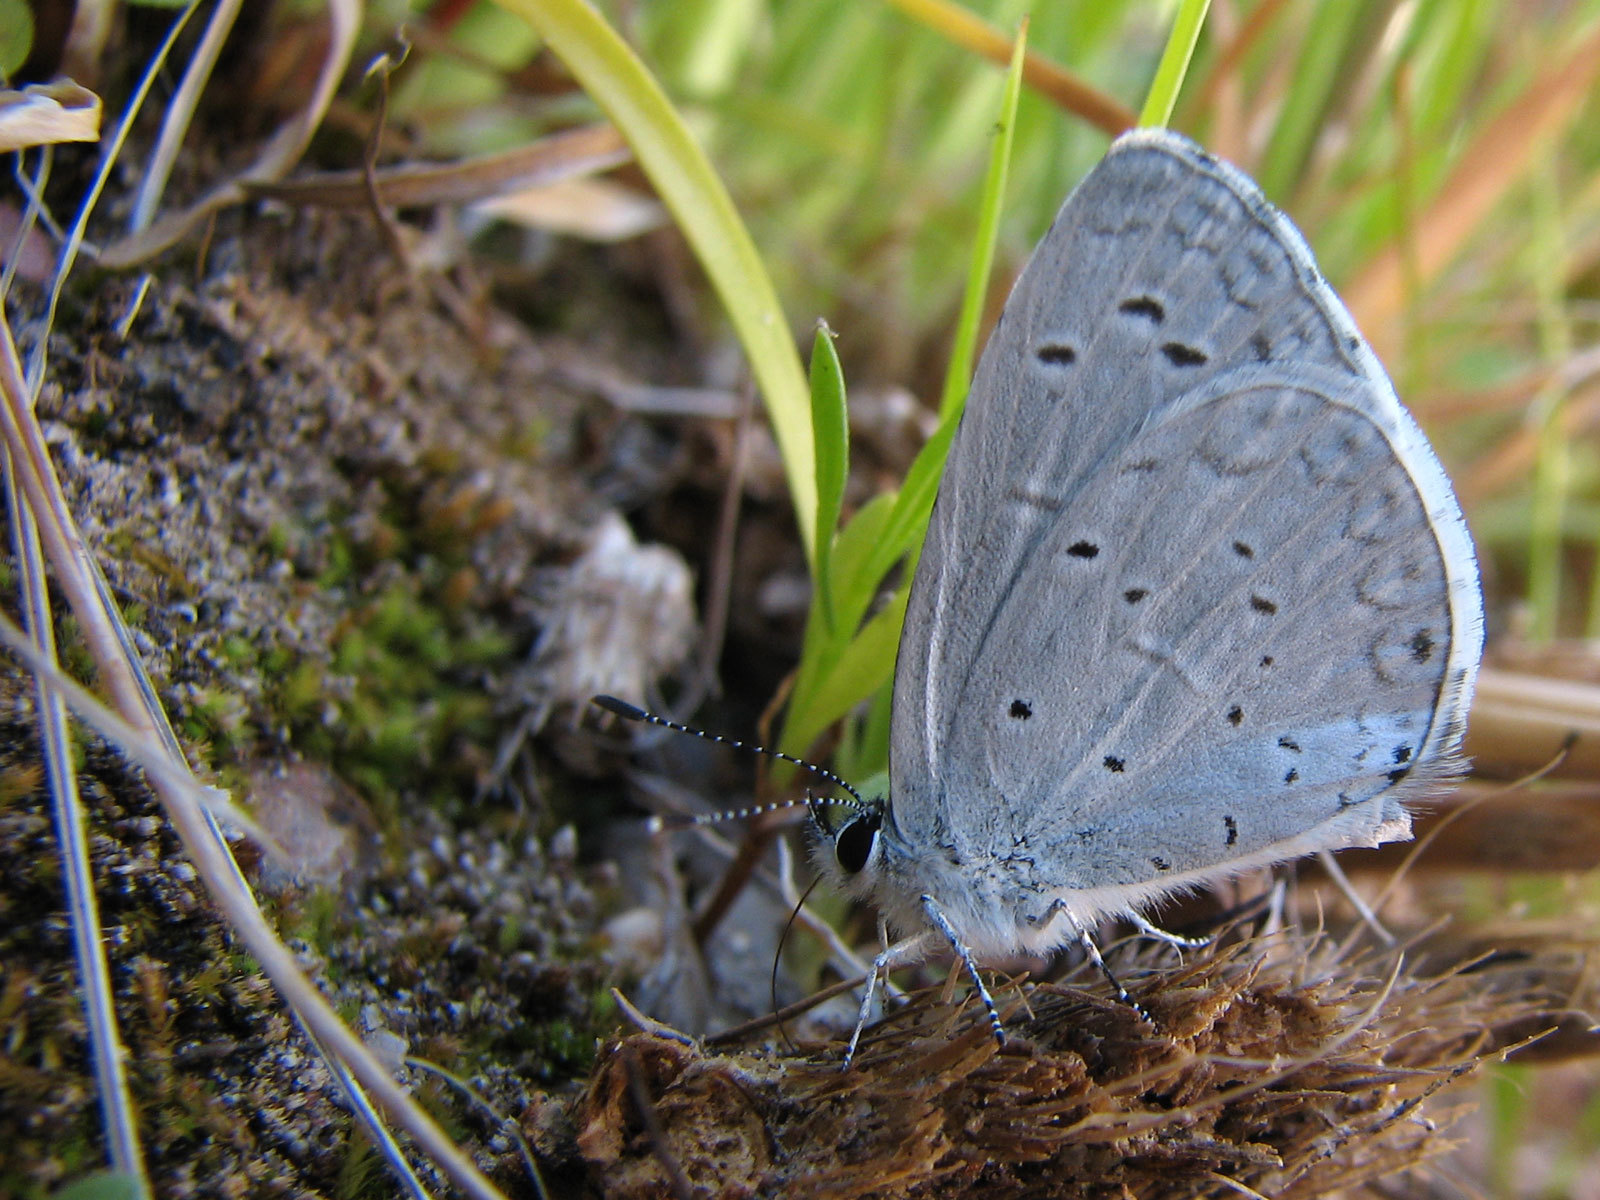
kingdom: Animalia
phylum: Arthropoda
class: Insecta
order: Lepidoptera
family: Lycaenidae
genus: Celastrina
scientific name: Celastrina ladon
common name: Spring azure
